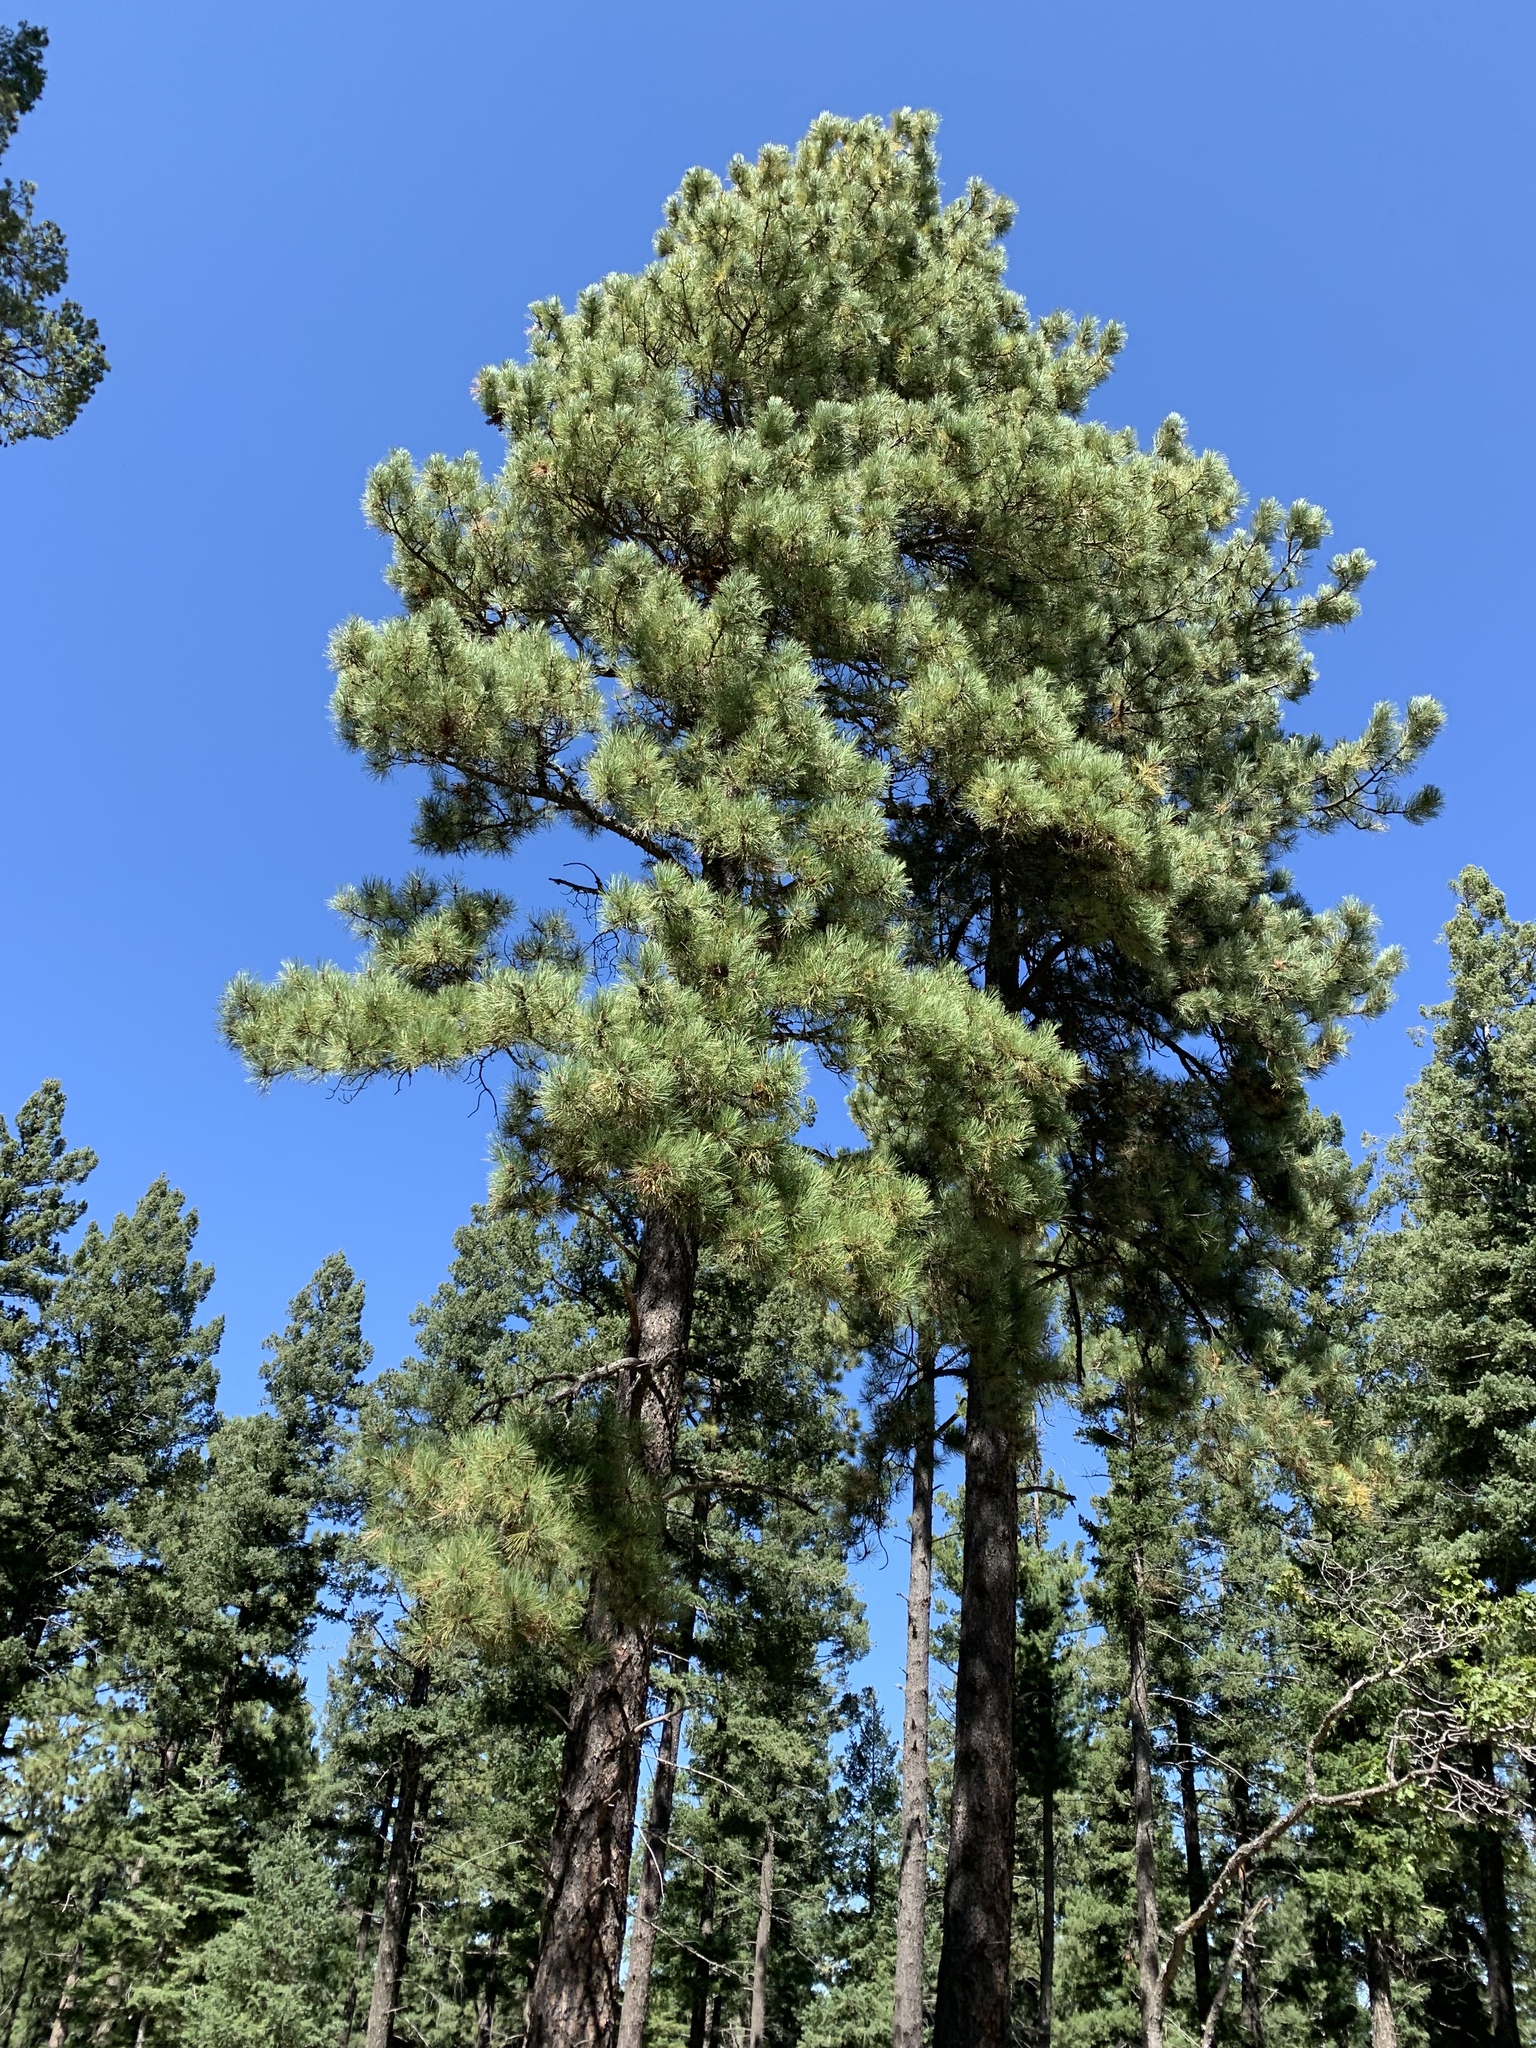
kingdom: Plantae
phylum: Tracheophyta
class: Pinopsida
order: Pinales
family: Pinaceae
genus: Pinus
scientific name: Pinus ponderosa
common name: Western yellow-pine
